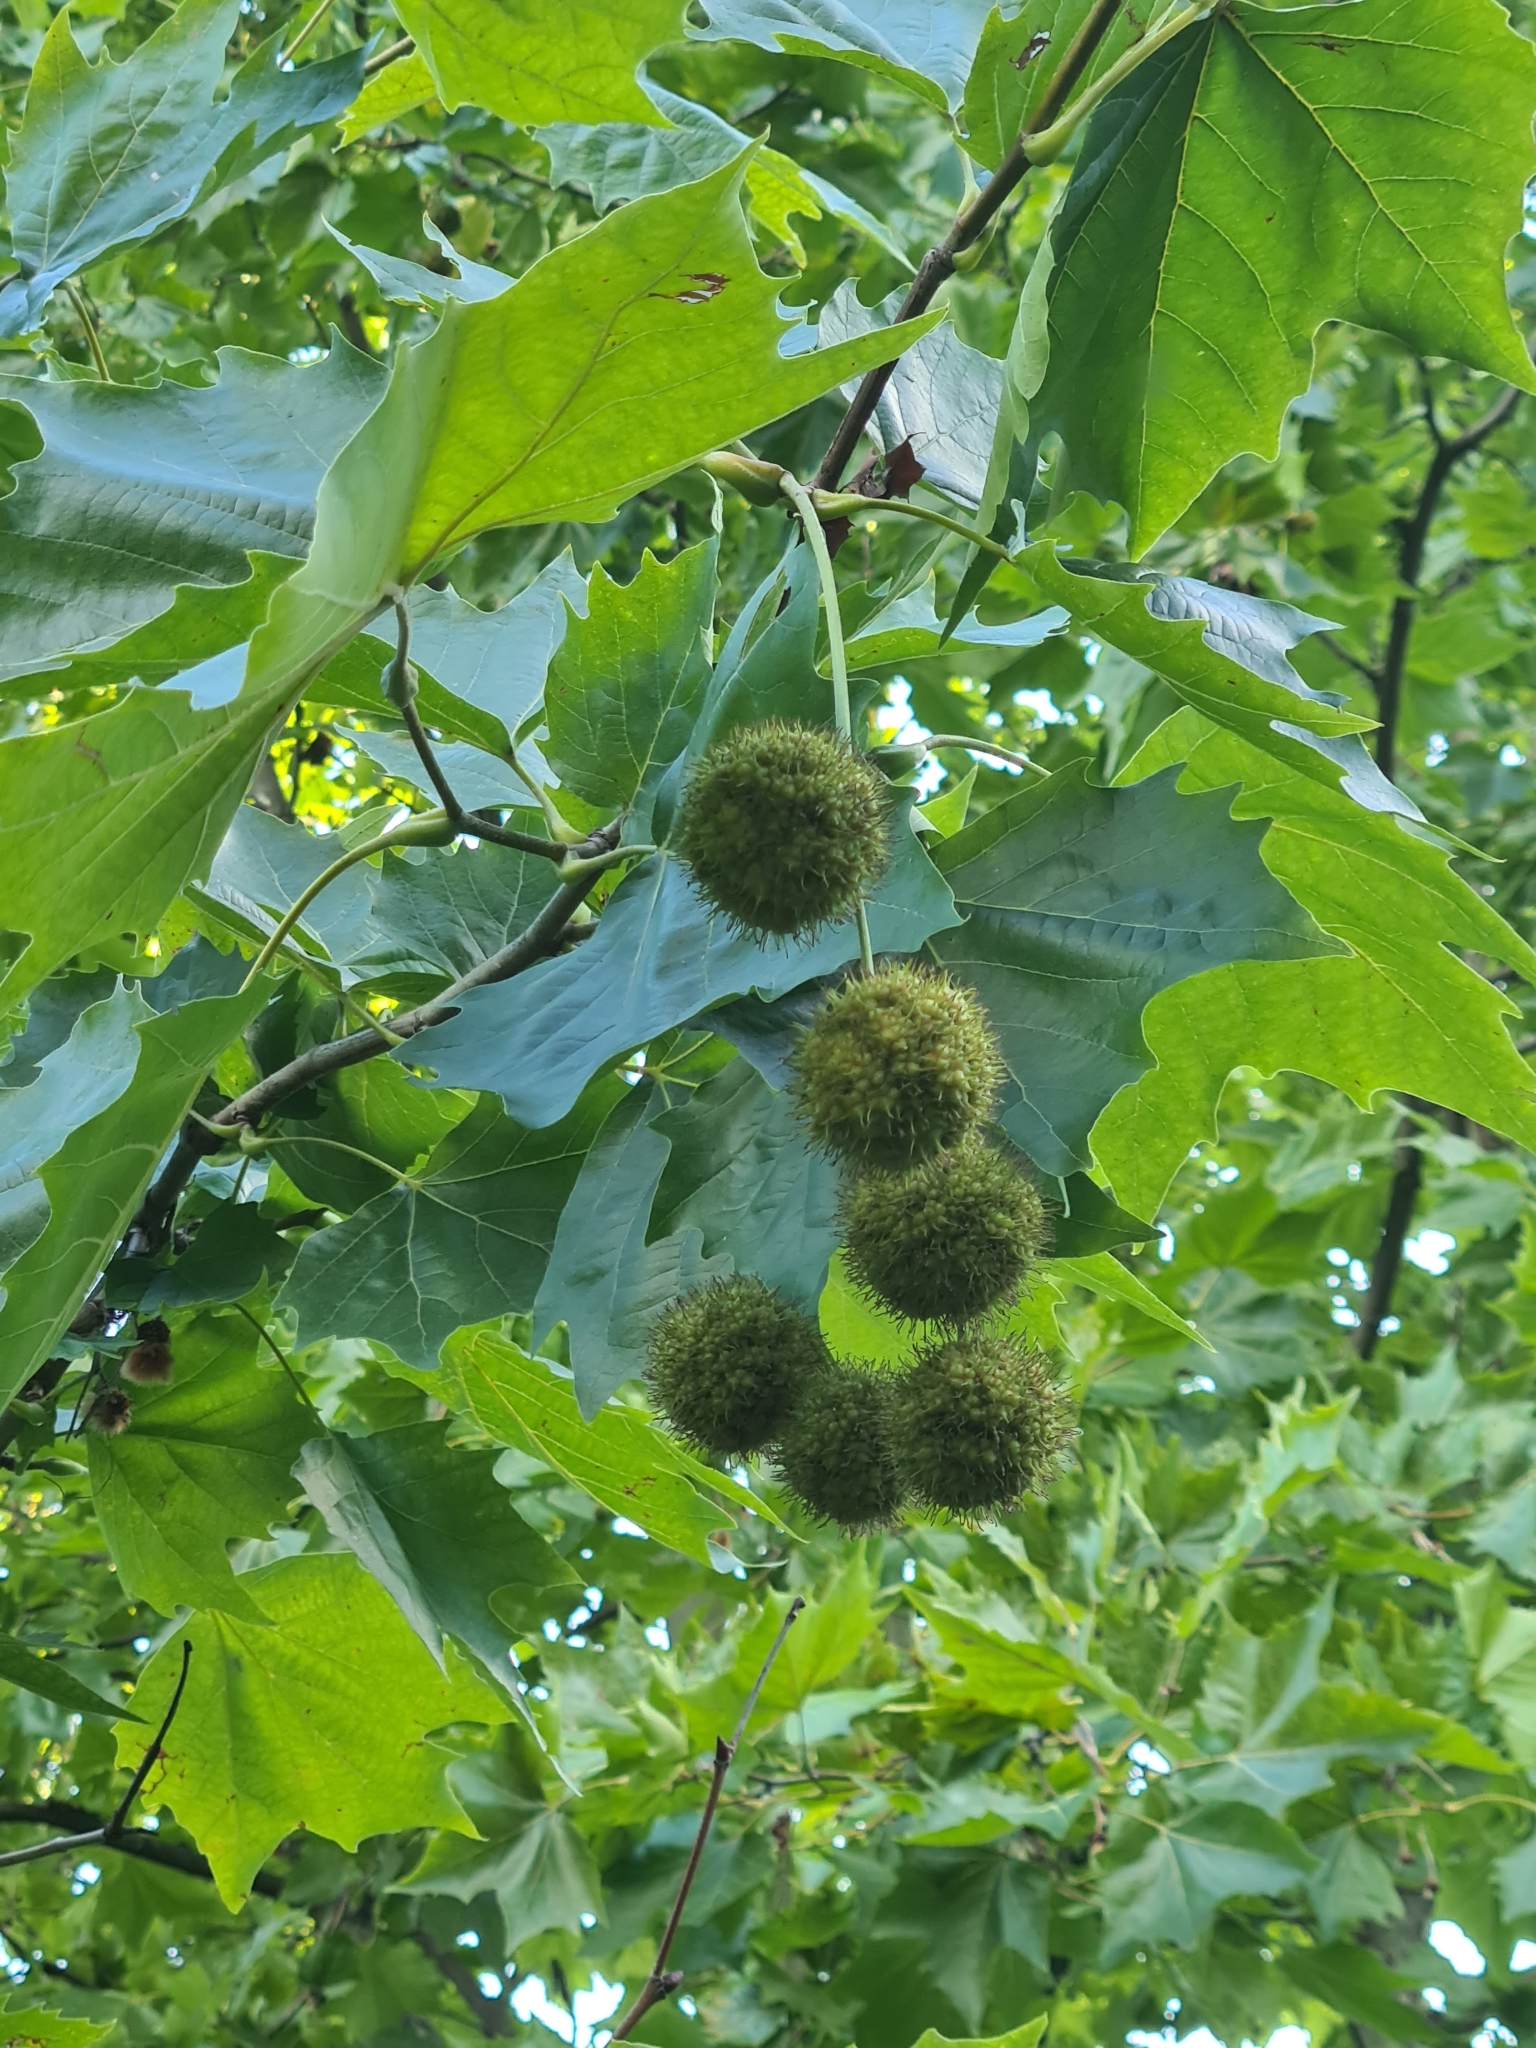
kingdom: Plantae
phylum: Tracheophyta
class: Magnoliopsida
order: Proteales
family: Platanaceae
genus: Platanus
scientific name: Platanus hispanica
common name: London plane
